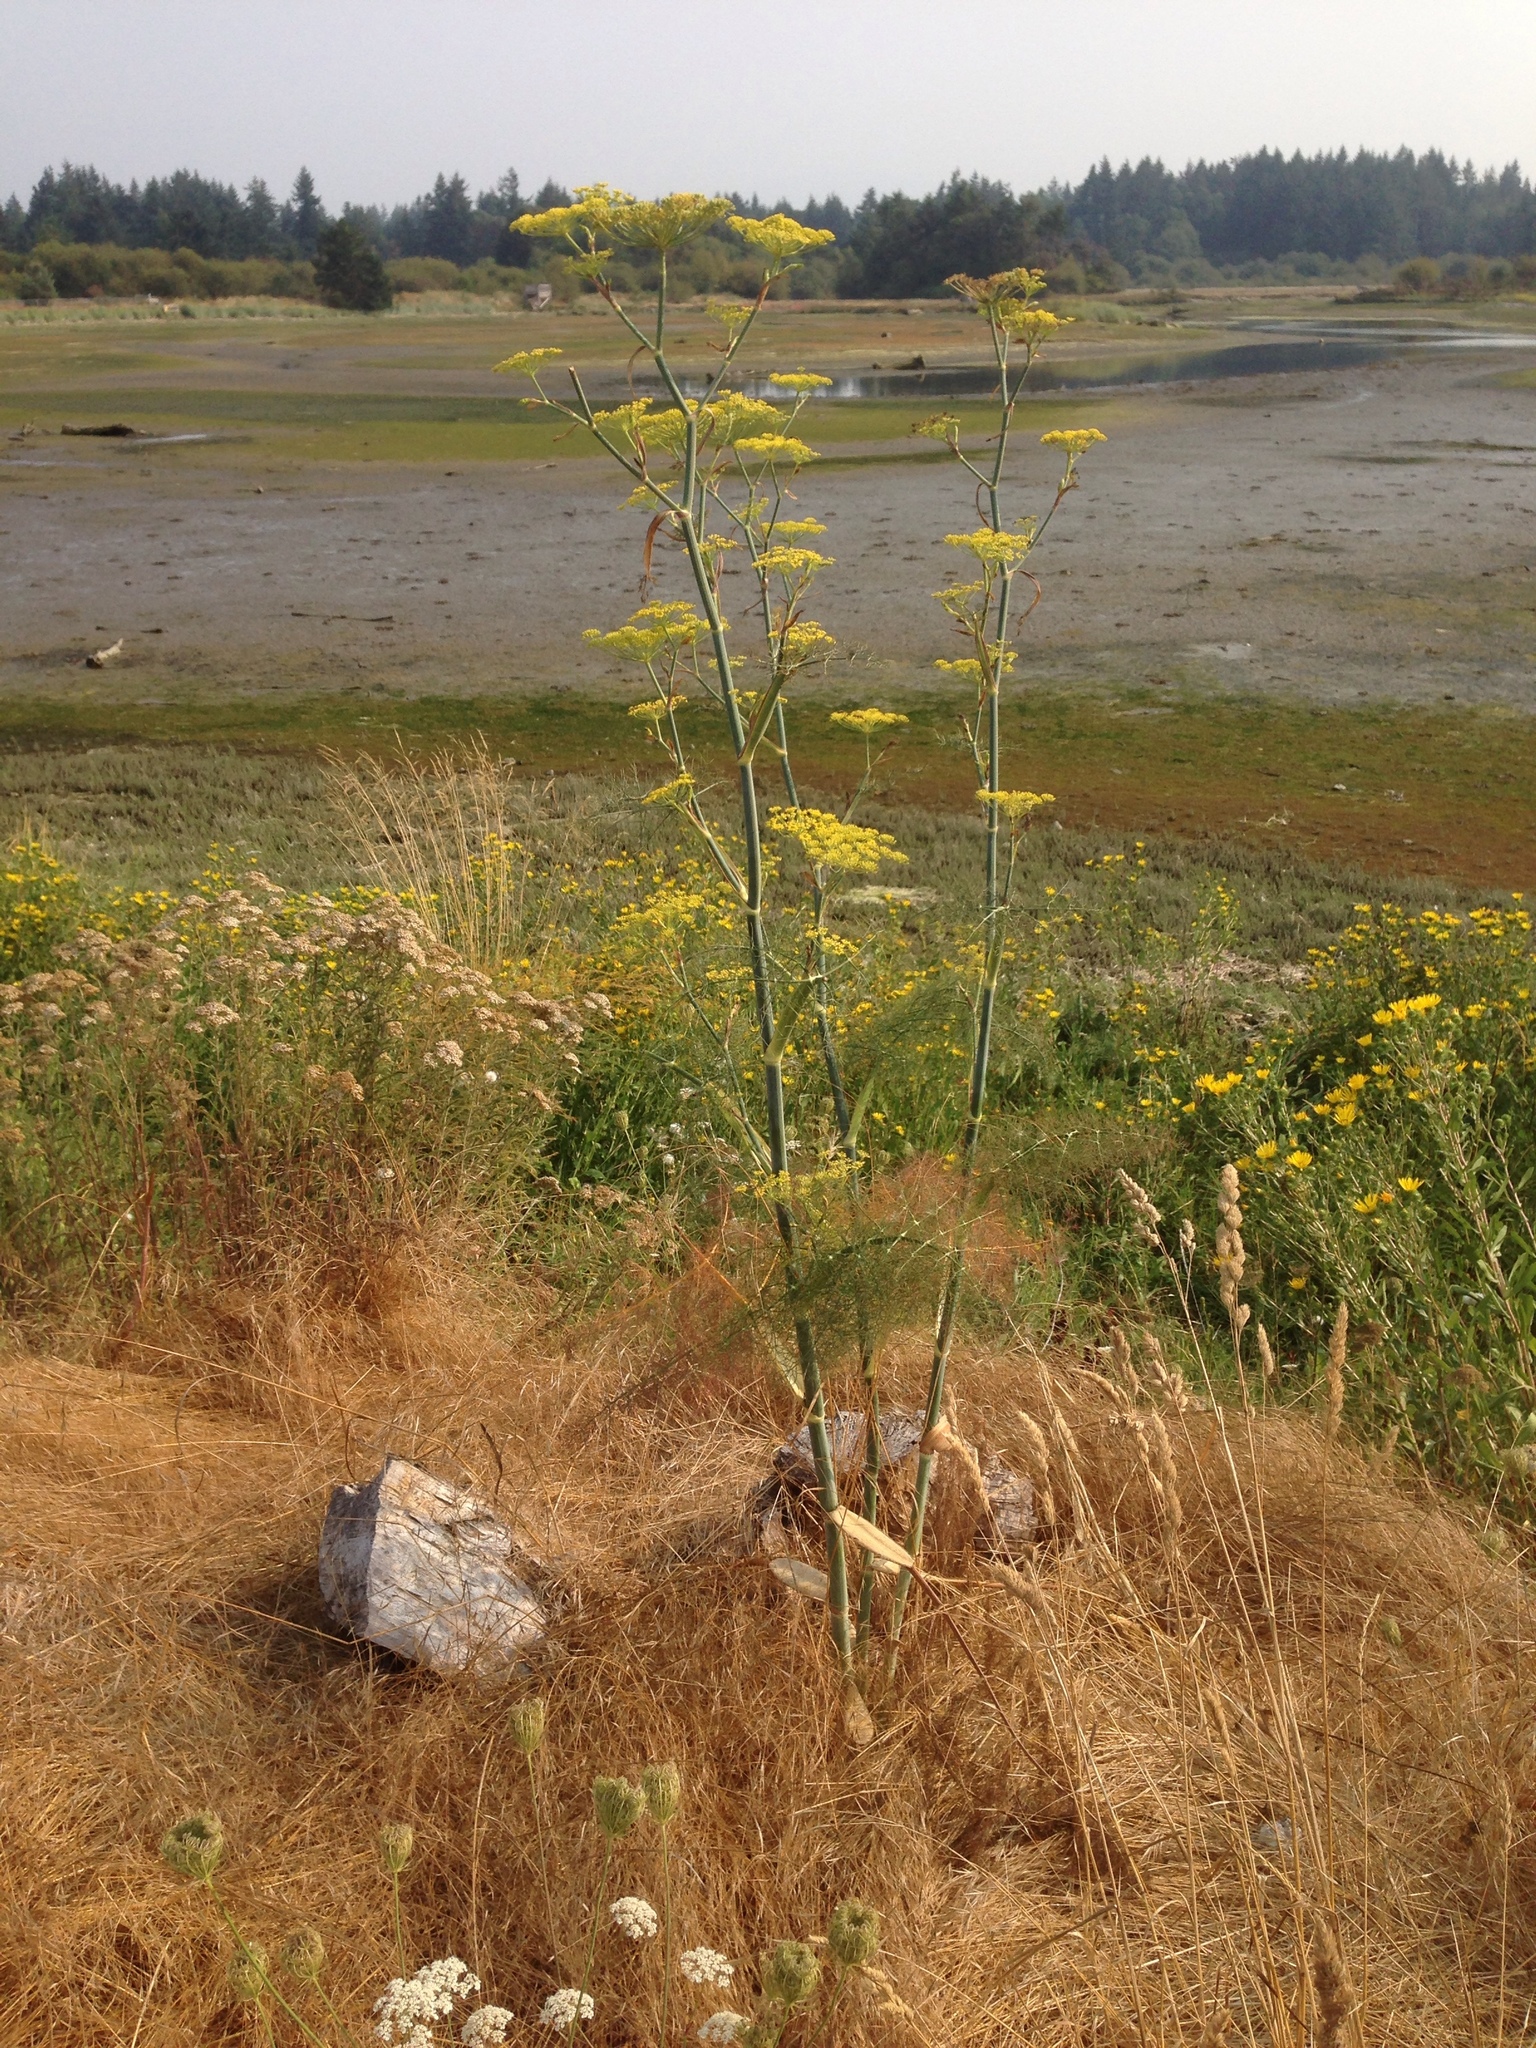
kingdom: Plantae
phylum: Tracheophyta
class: Magnoliopsida
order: Apiales
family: Apiaceae
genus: Foeniculum
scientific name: Foeniculum vulgare
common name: Fennel
